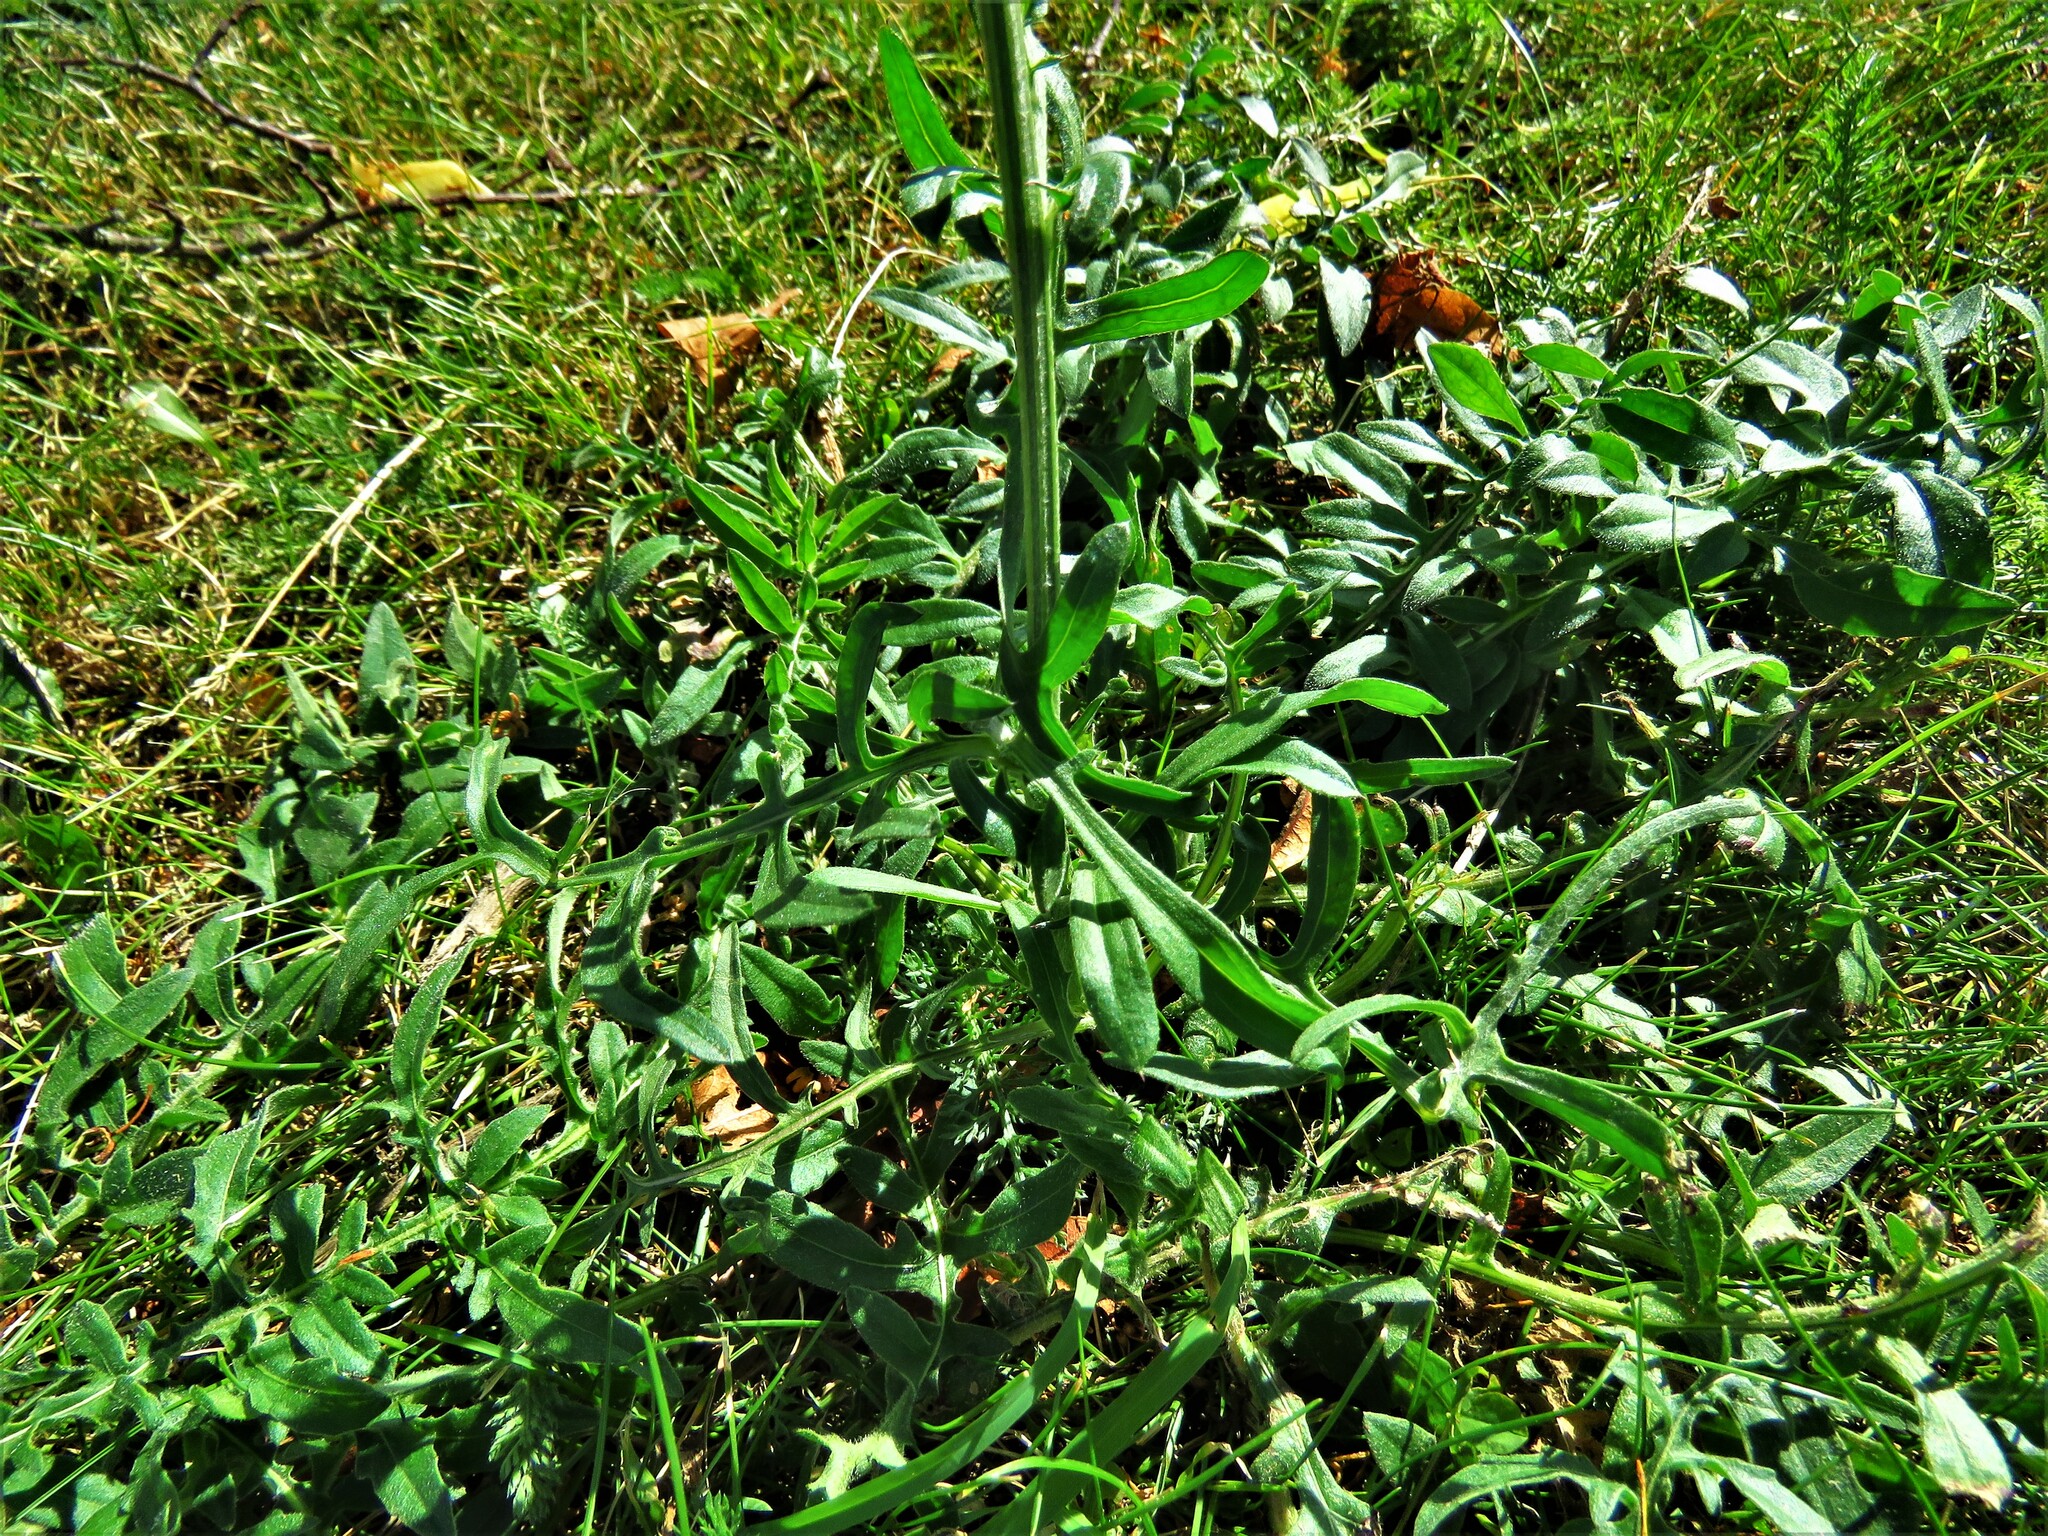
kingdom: Plantae
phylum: Tracheophyta
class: Magnoliopsida
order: Asterales
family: Asteraceae
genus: Centaurea
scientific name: Centaurea scabiosa
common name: Greater knapweed
